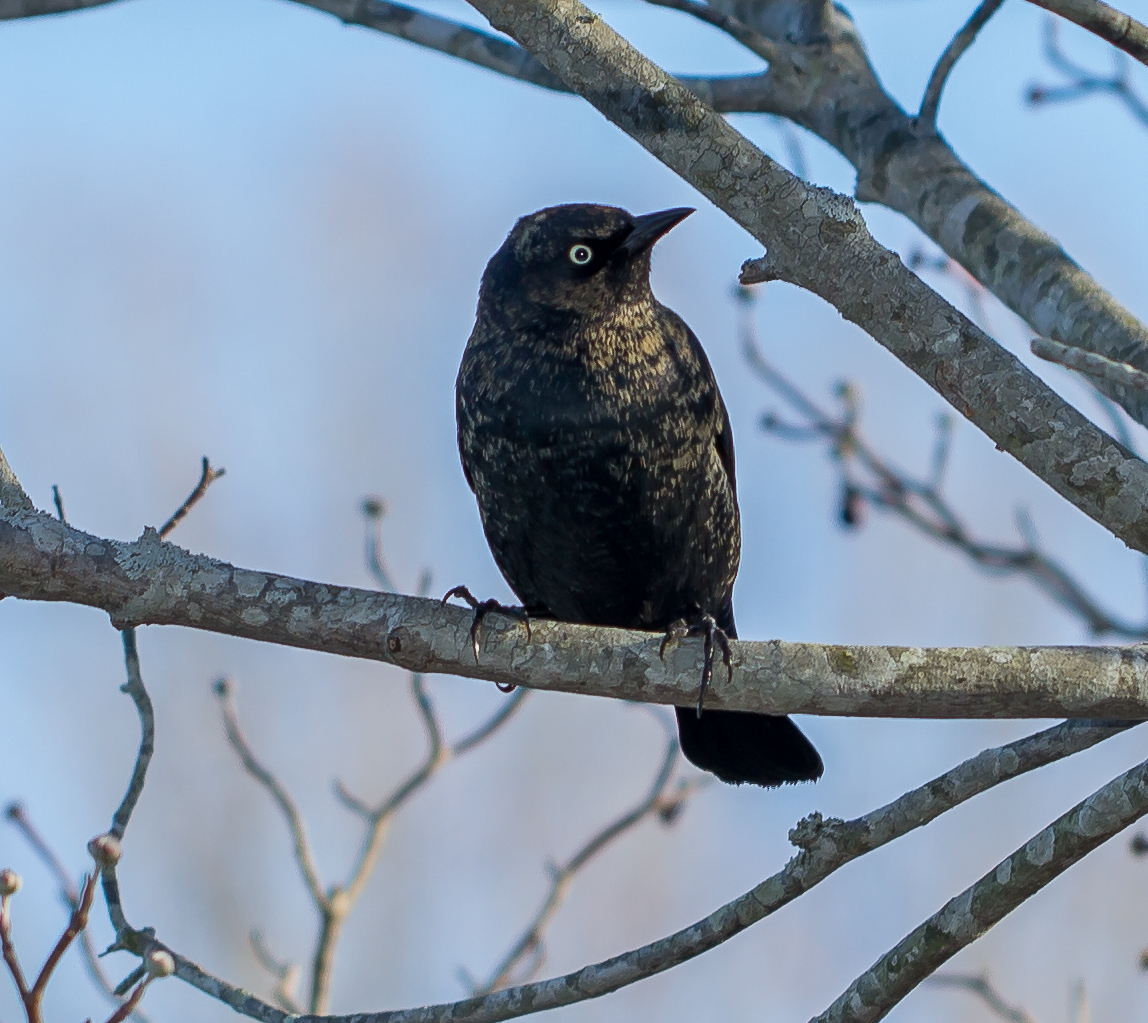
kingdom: Animalia
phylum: Chordata
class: Aves
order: Passeriformes
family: Icteridae
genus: Euphagus
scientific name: Euphagus carolinus
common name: Rusty blackbird
